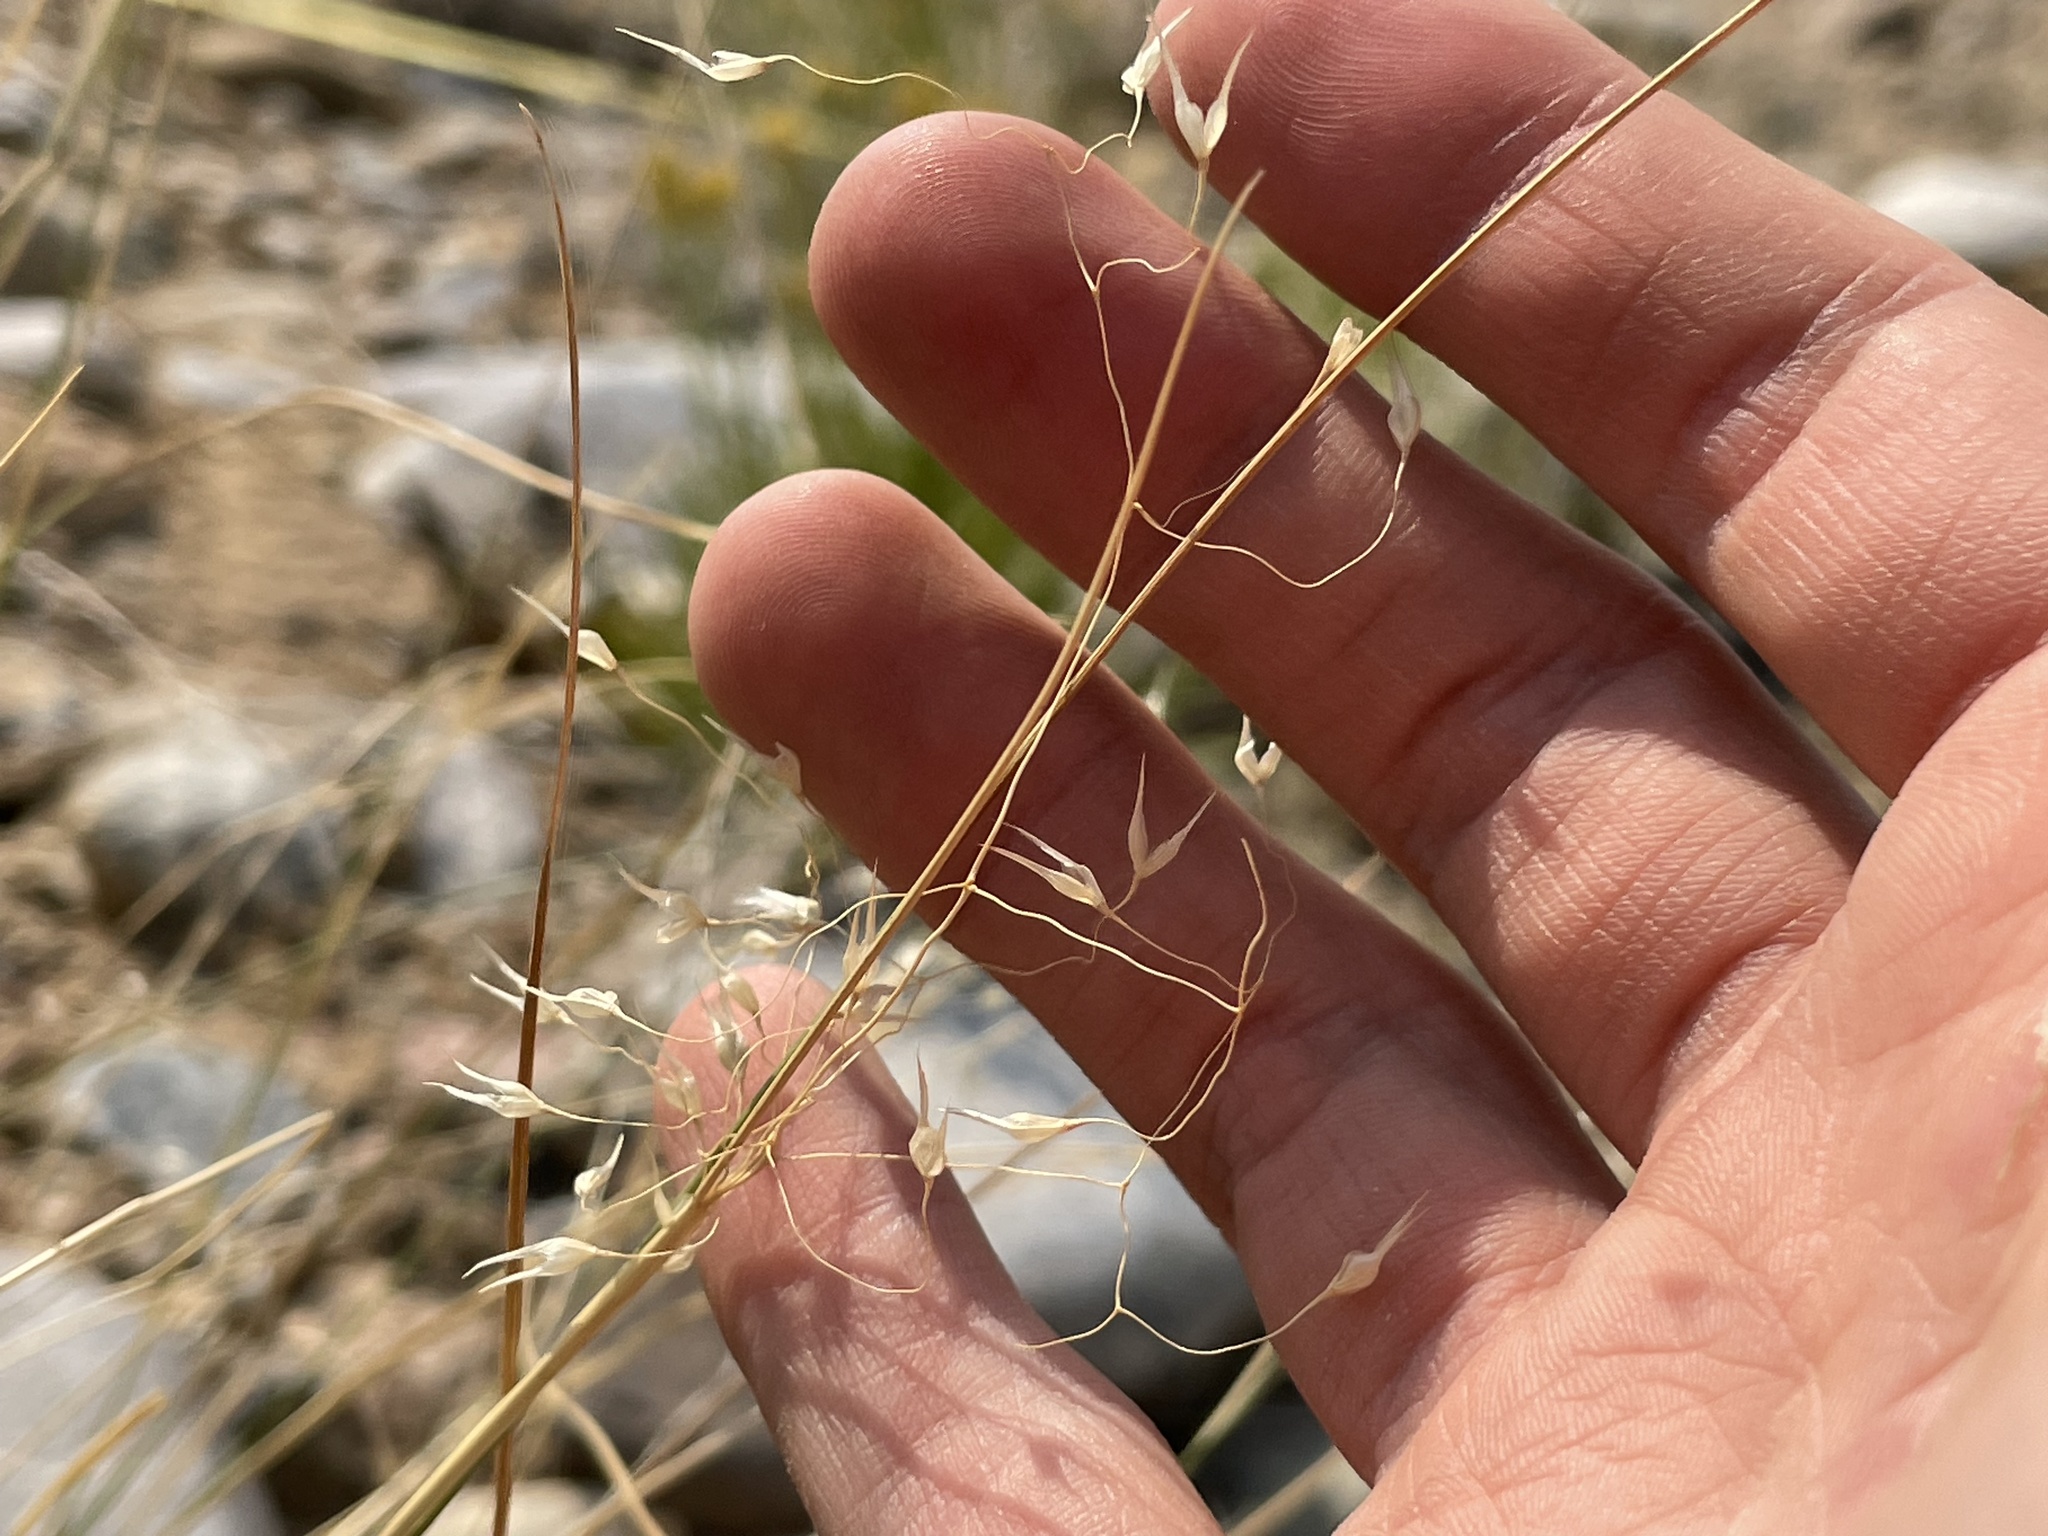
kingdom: Plantae
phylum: Tracheophyta
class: Liliopsida
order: Poales
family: Poaceae
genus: Eriocoma
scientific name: Eriocoma hymenoides
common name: Indian mountain ricegrass
